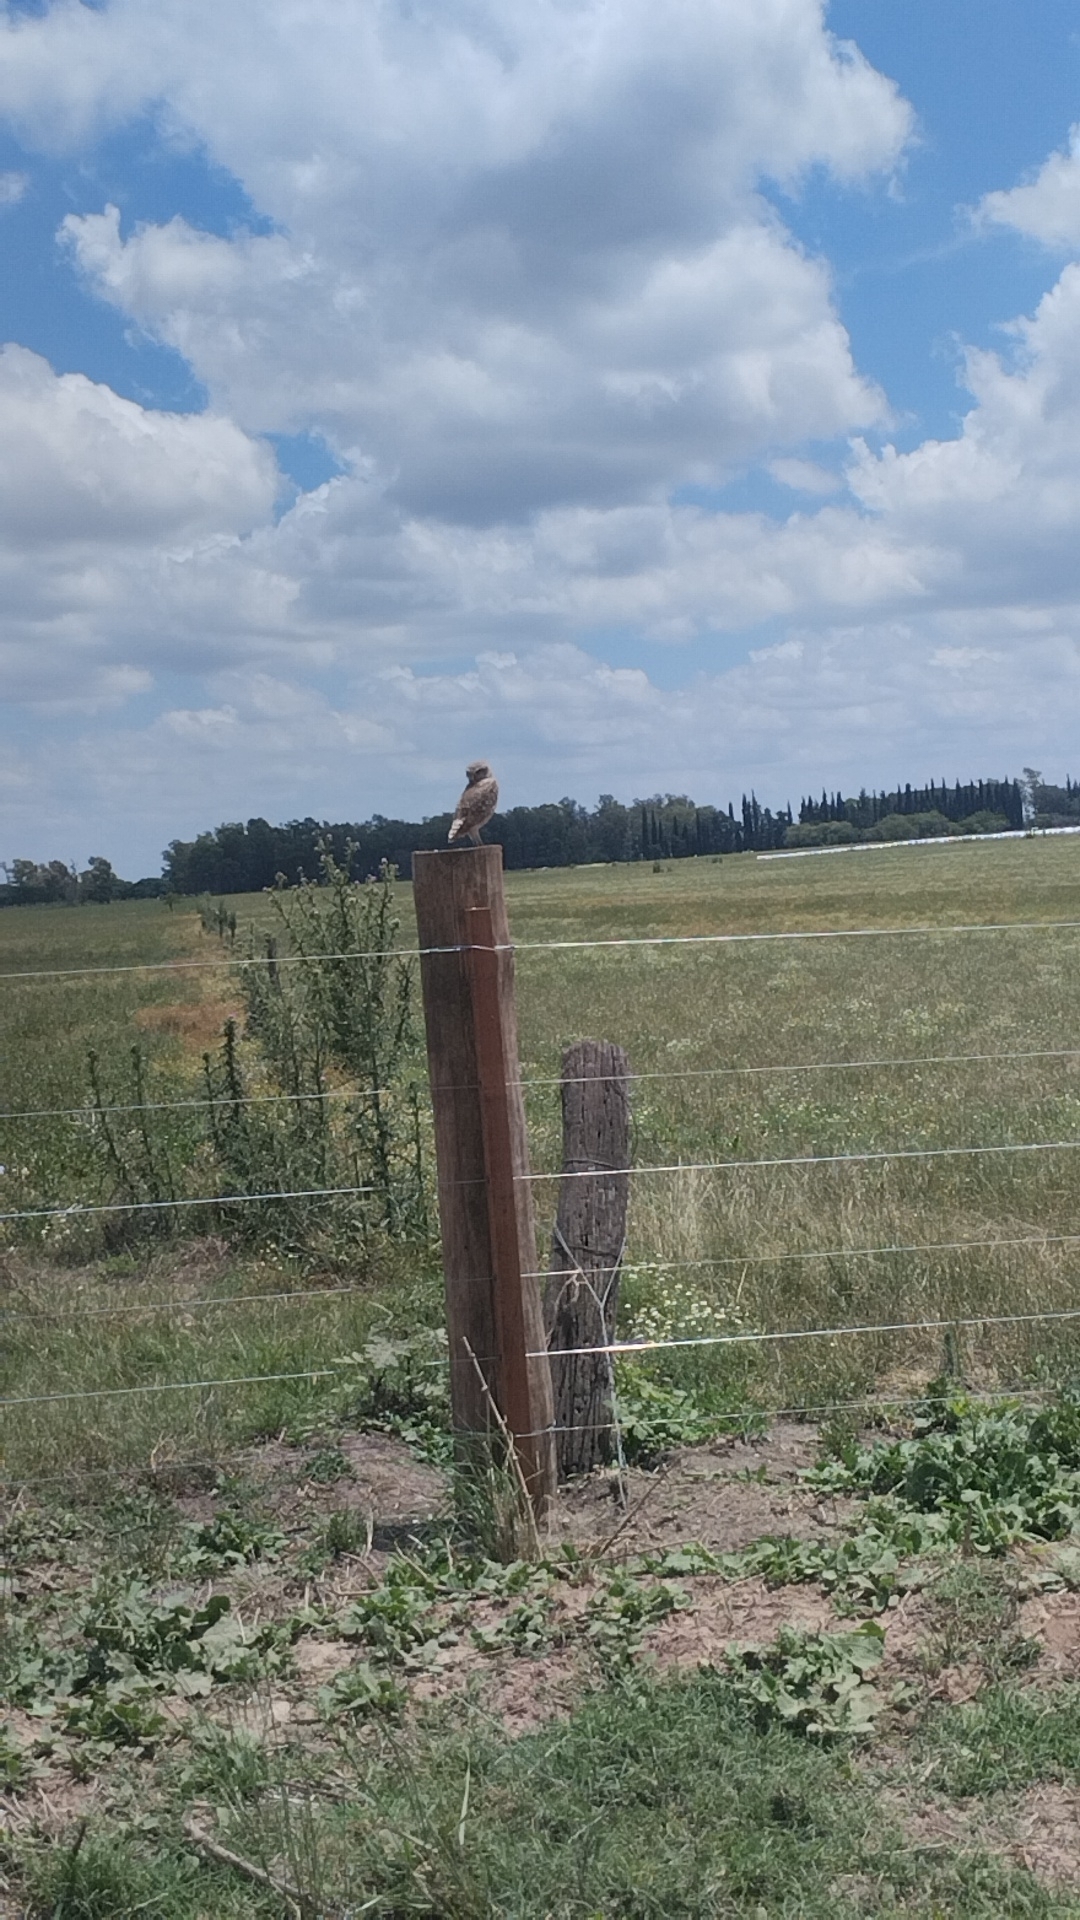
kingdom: Animalia
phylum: Chordata
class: Aves
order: Strigiformes
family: Strigidae
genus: Athene
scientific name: Athene cunicularia
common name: Burrowing owl
